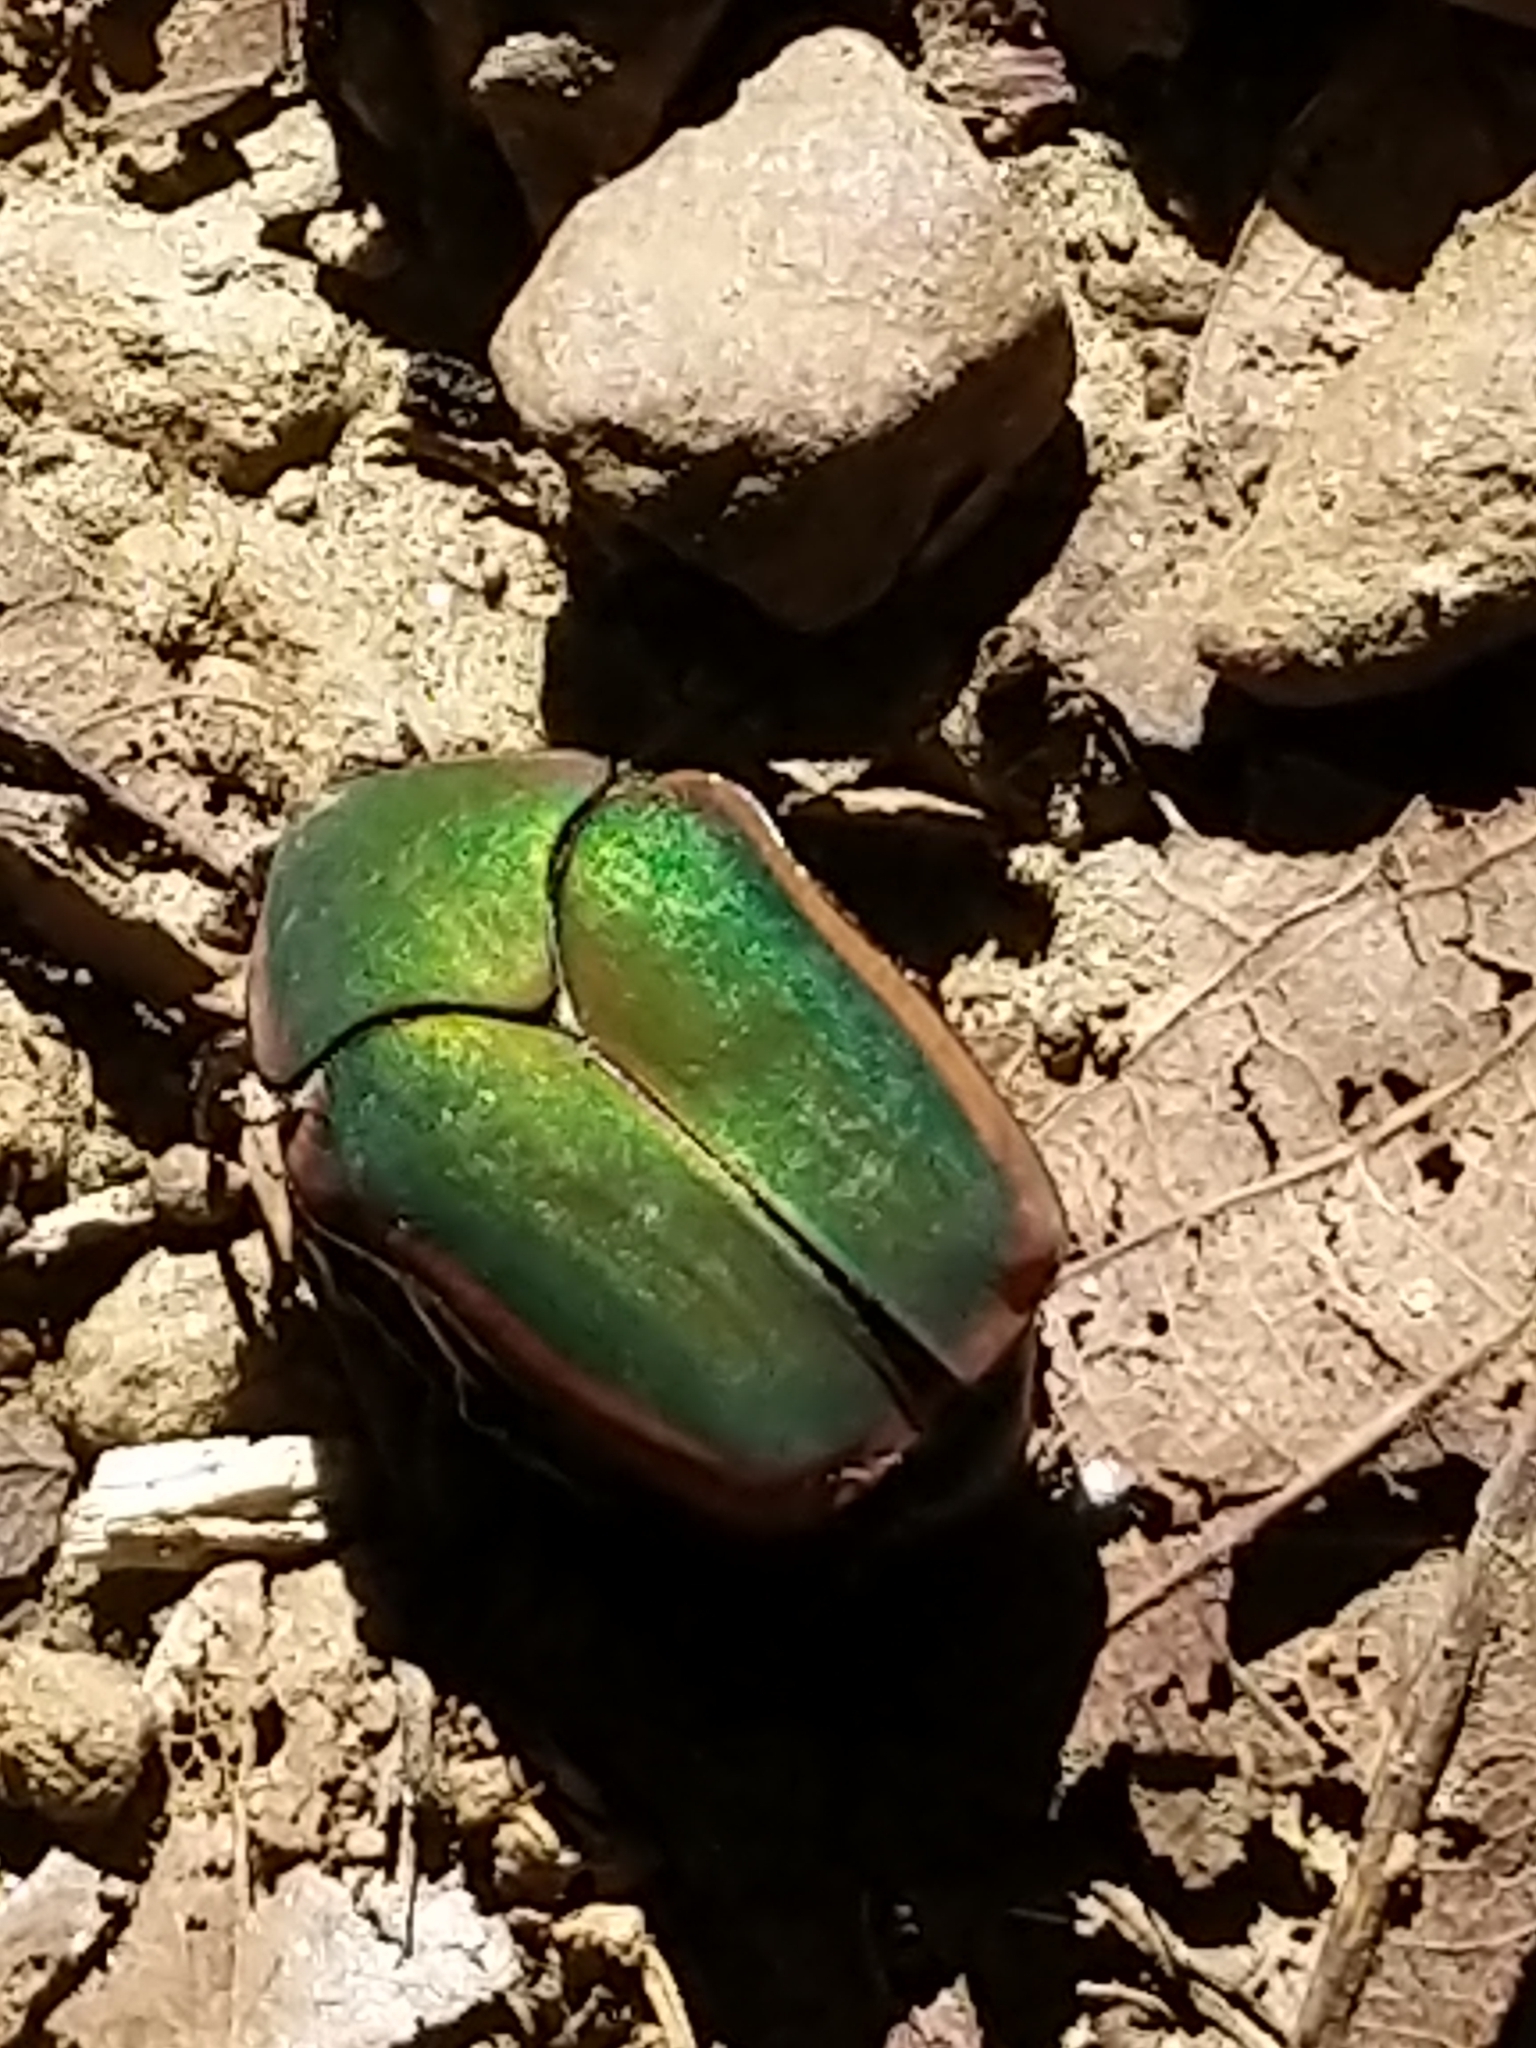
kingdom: Animalia
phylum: Arthropoda
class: Insecta
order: Coleoptera
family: Scarabaeidae
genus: Cotinis
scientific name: Cotinis nitida
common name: Common green june beetle
